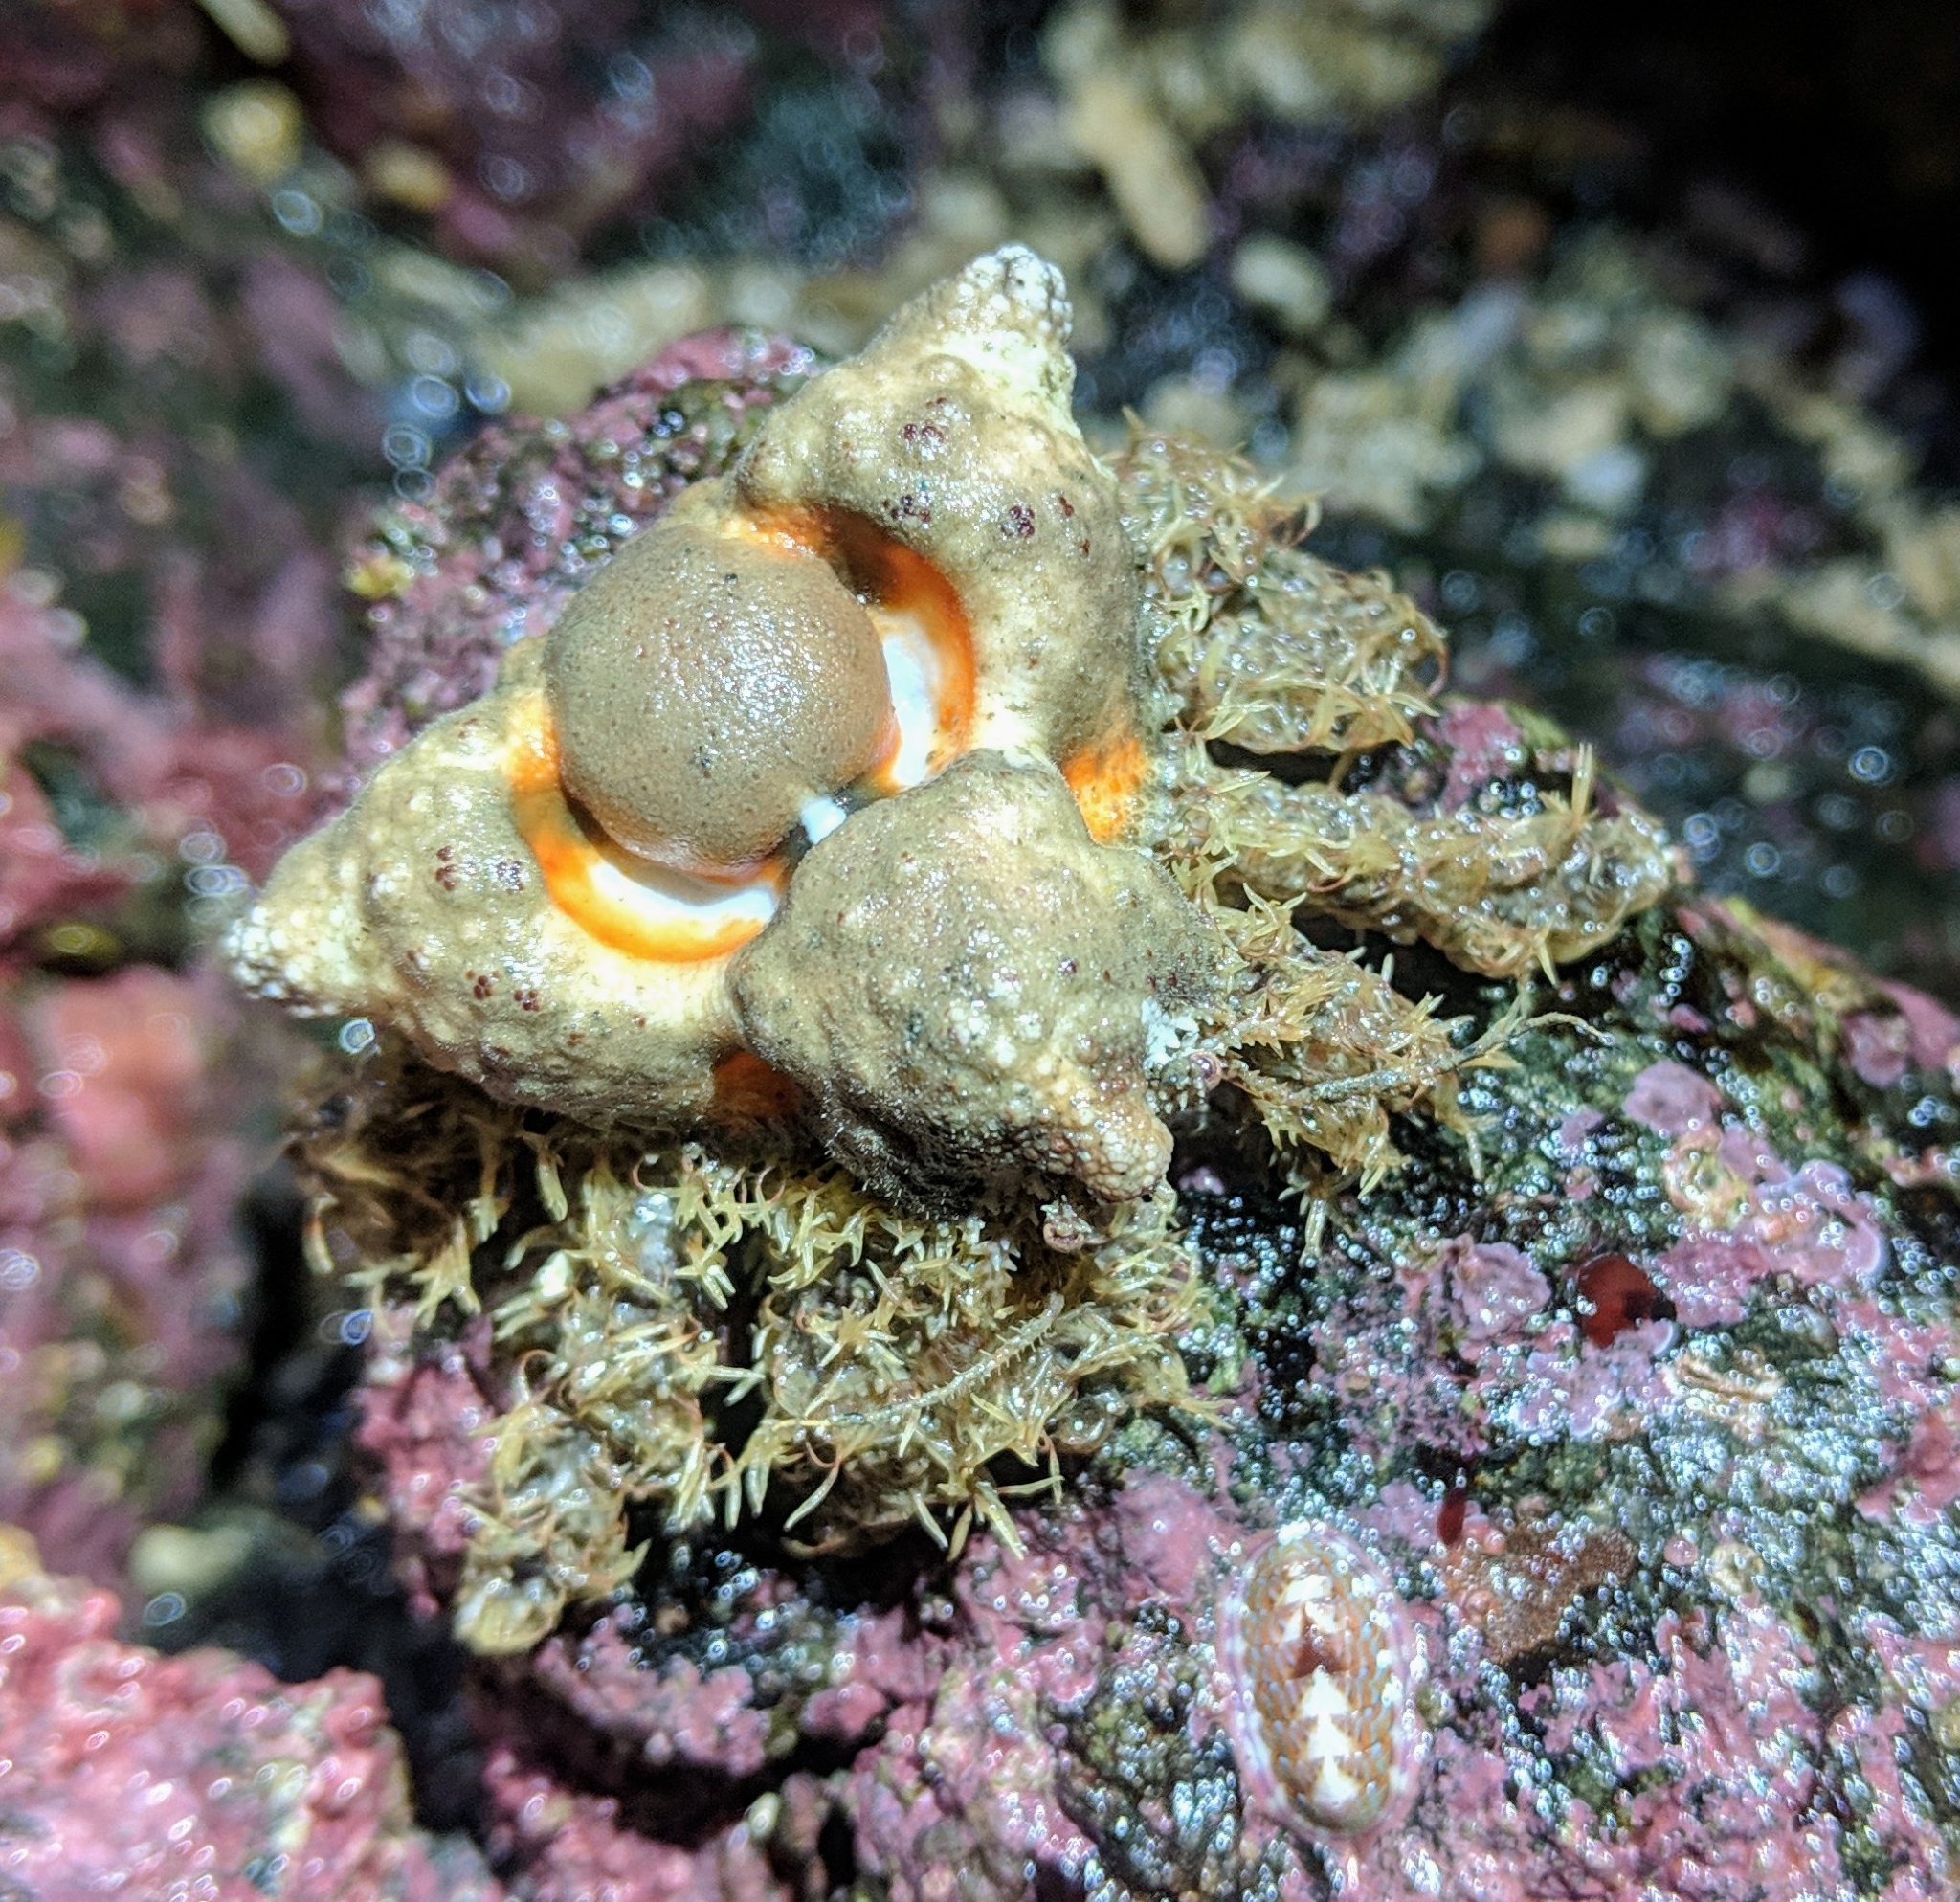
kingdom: Animalia
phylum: Arthropoda
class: Malacostraca
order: Decapoda
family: Lithodidae
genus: Rhinolithodes
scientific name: Rhinolithodes wosnessenskii
